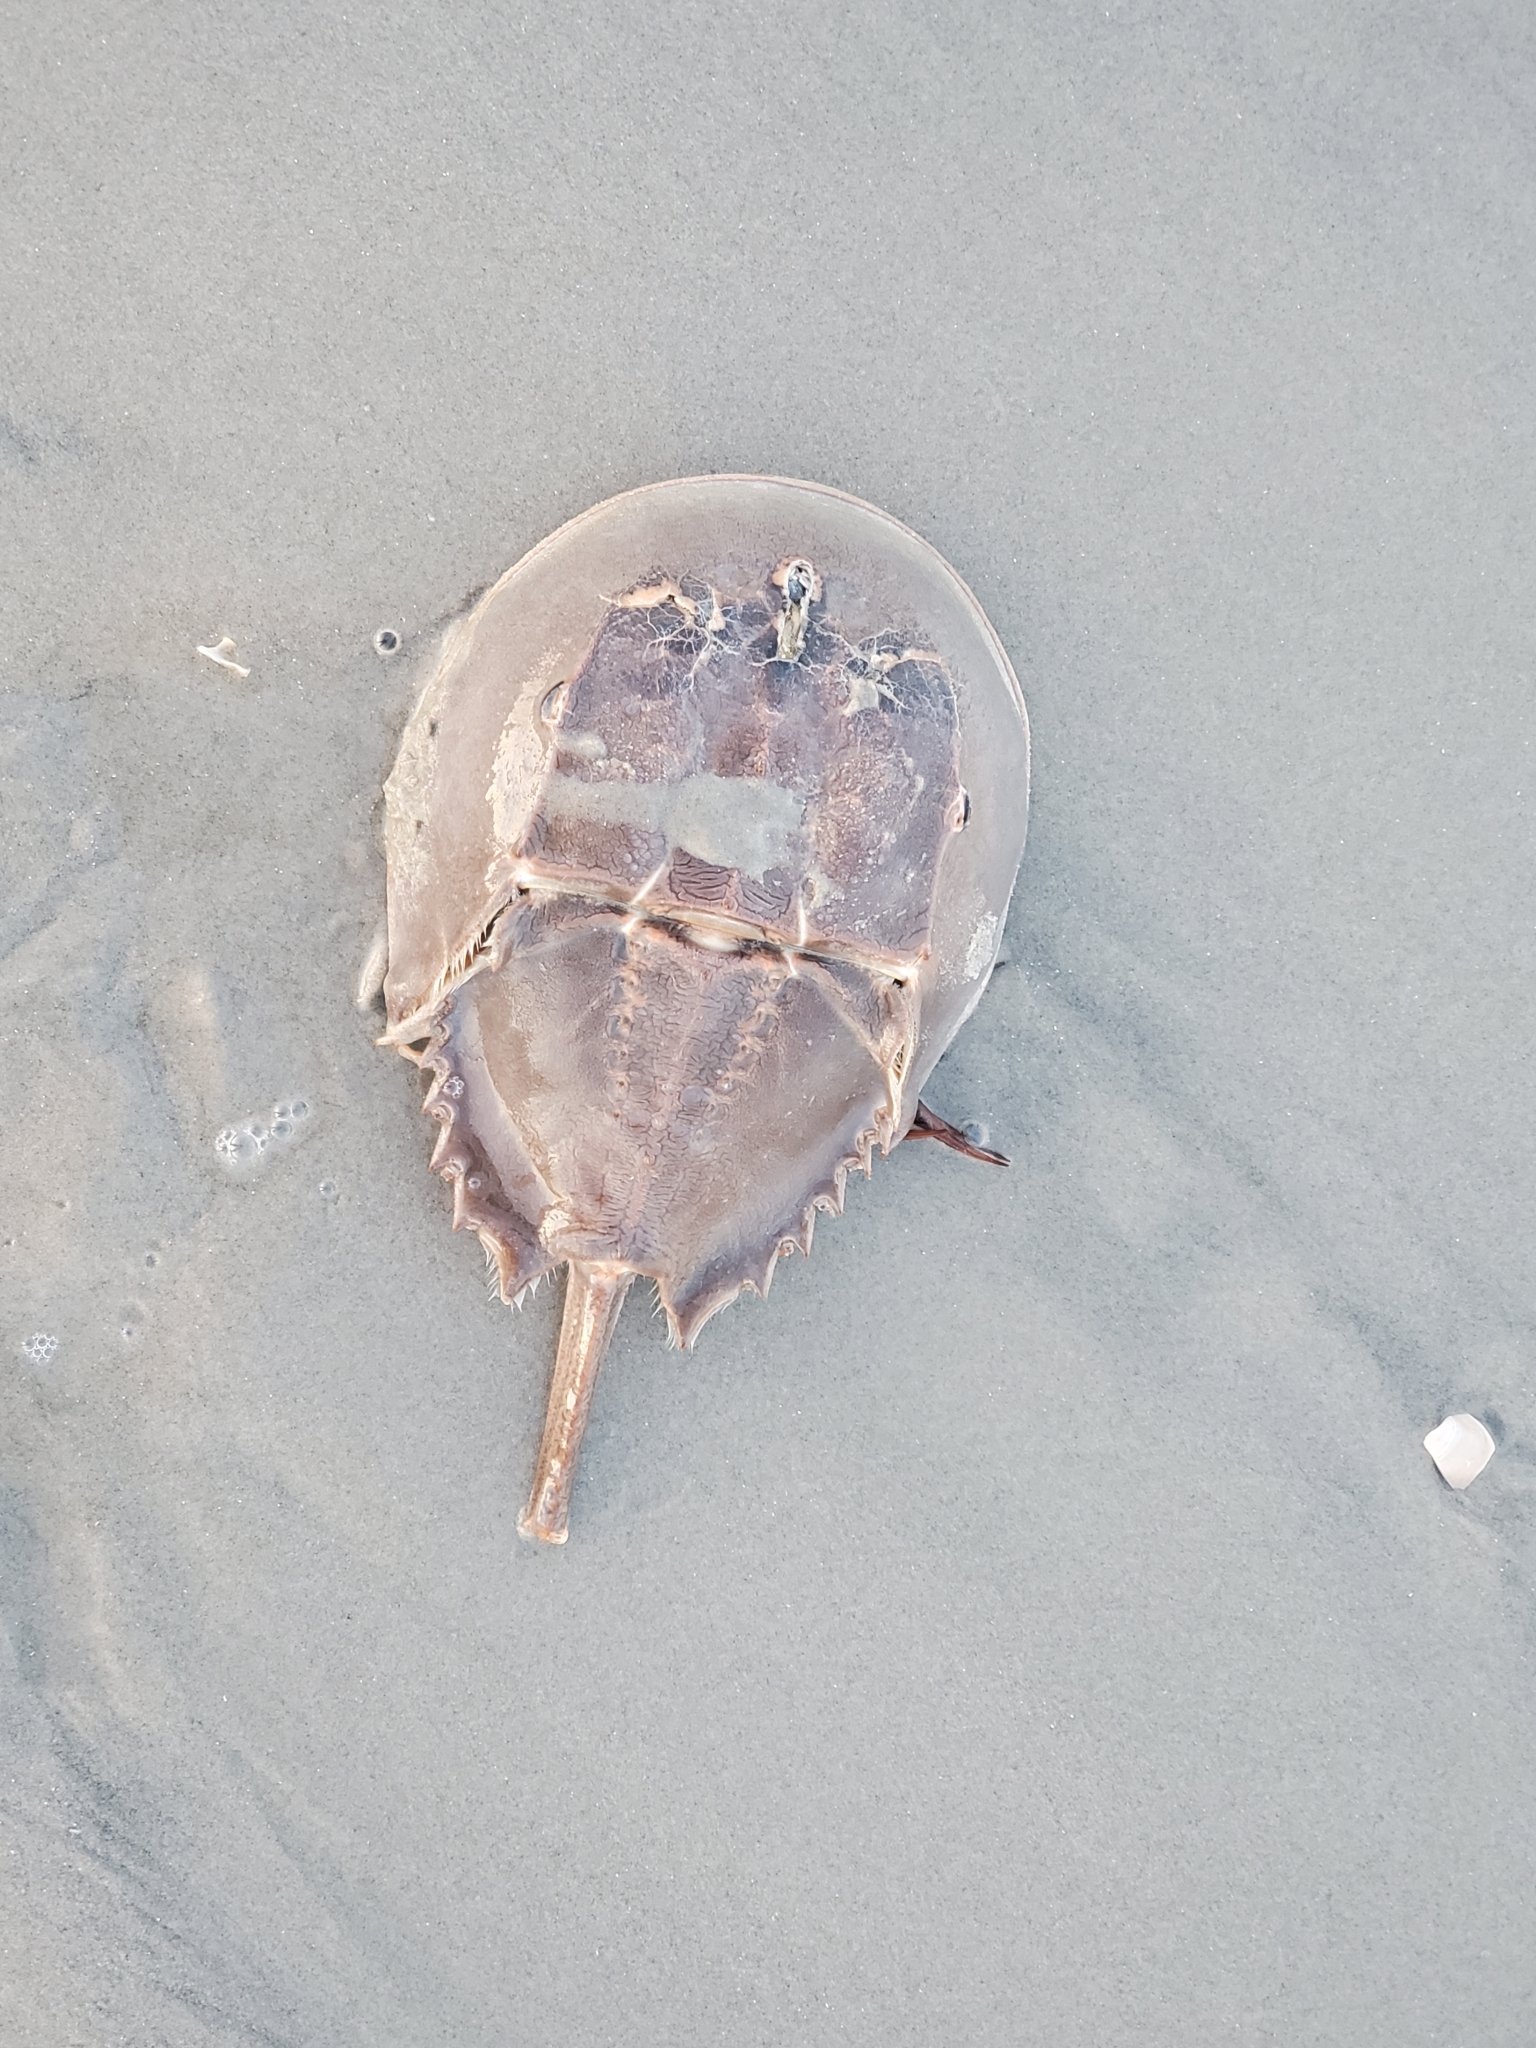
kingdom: Animalia
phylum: Arthropoda
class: Merostomata
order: Xiphosurida
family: Limulidae
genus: Limulus
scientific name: Limulus polyphemus
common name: Horseshoe crab
